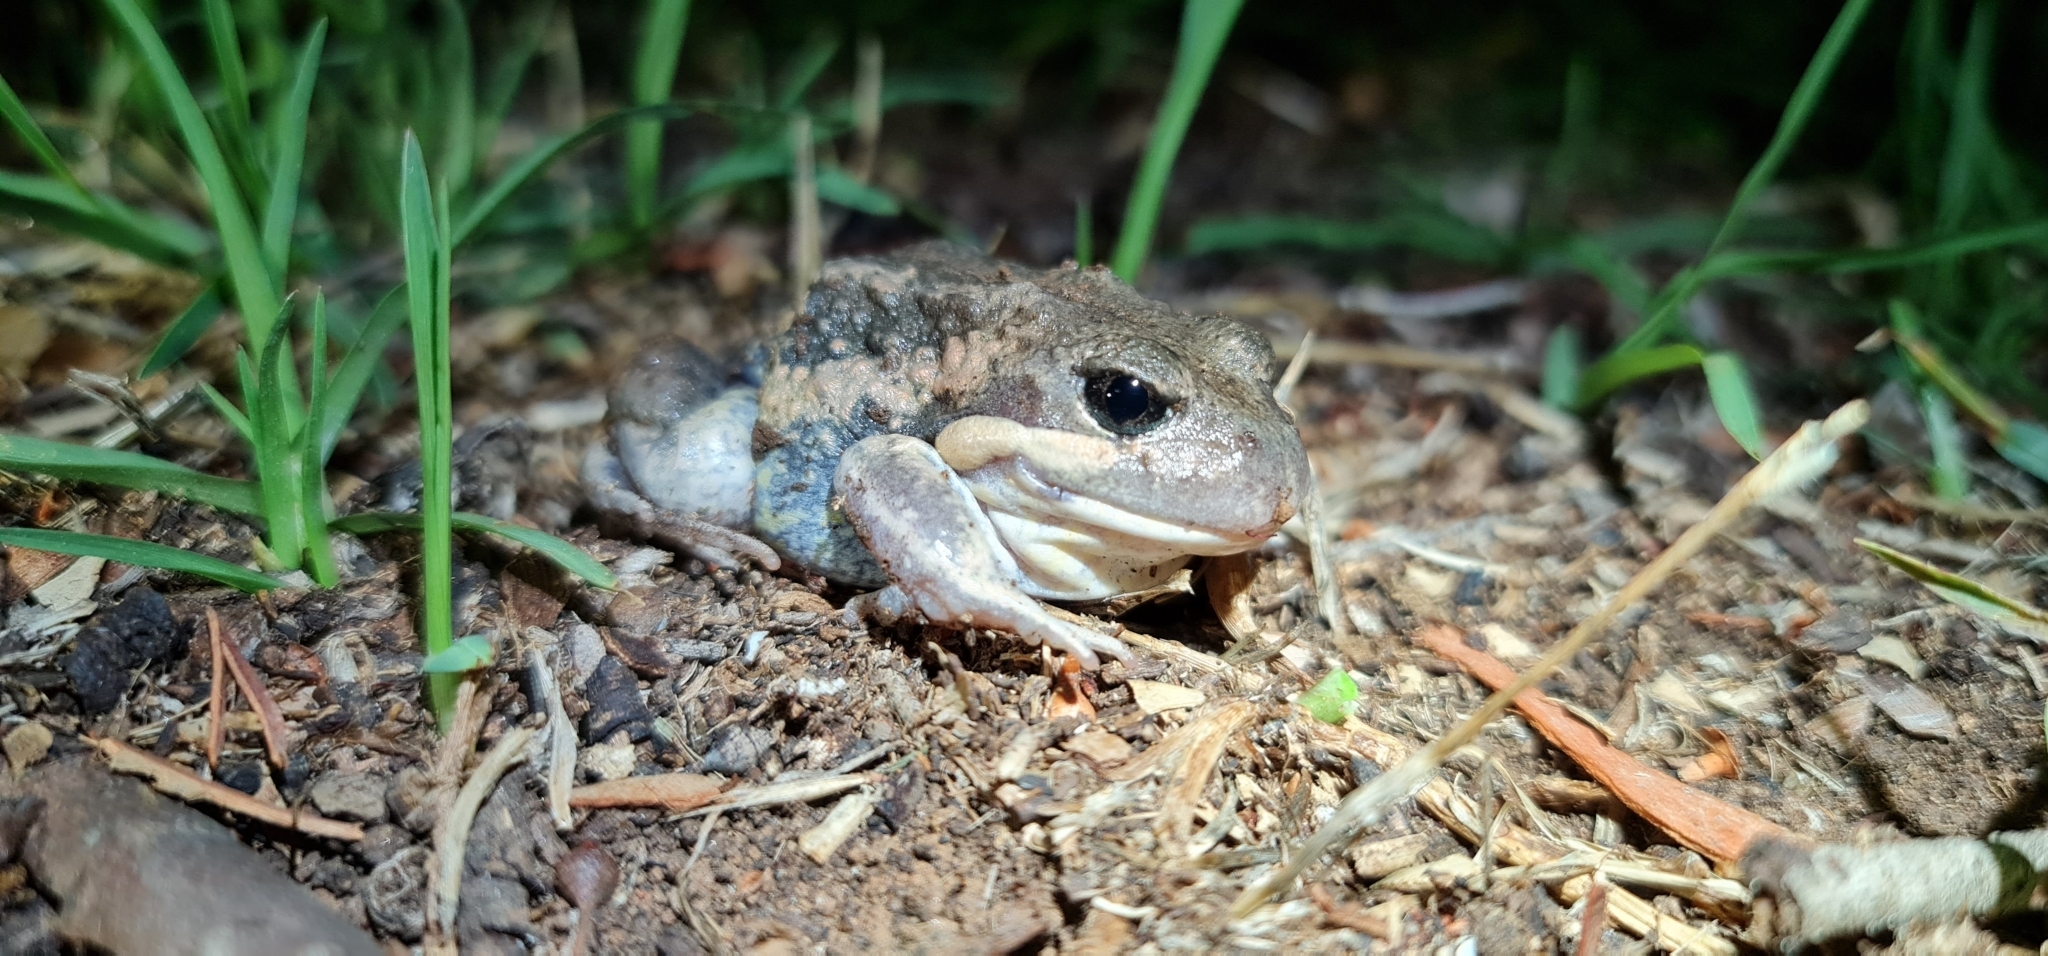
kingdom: Animalia
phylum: Chordata
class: Amphibia
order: Anura
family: Limnodynastidae
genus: Limnodynastes
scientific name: Limnodynastes dumerilii
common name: Banjo frog
